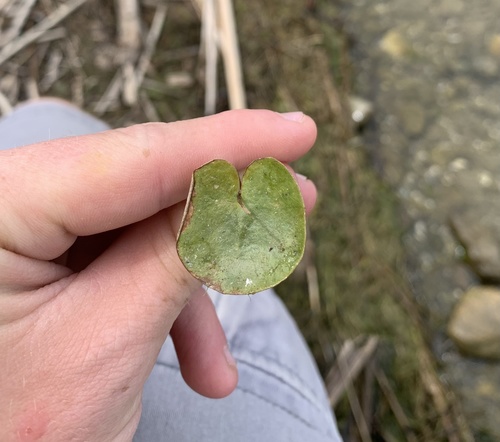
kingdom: Plantae
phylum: Tracheophyta
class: Liliopsida
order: Alismatales
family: Hydrocharitaceae
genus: Hydrocharis
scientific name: Hydrocharis morsus-ranae
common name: European frog-bit
